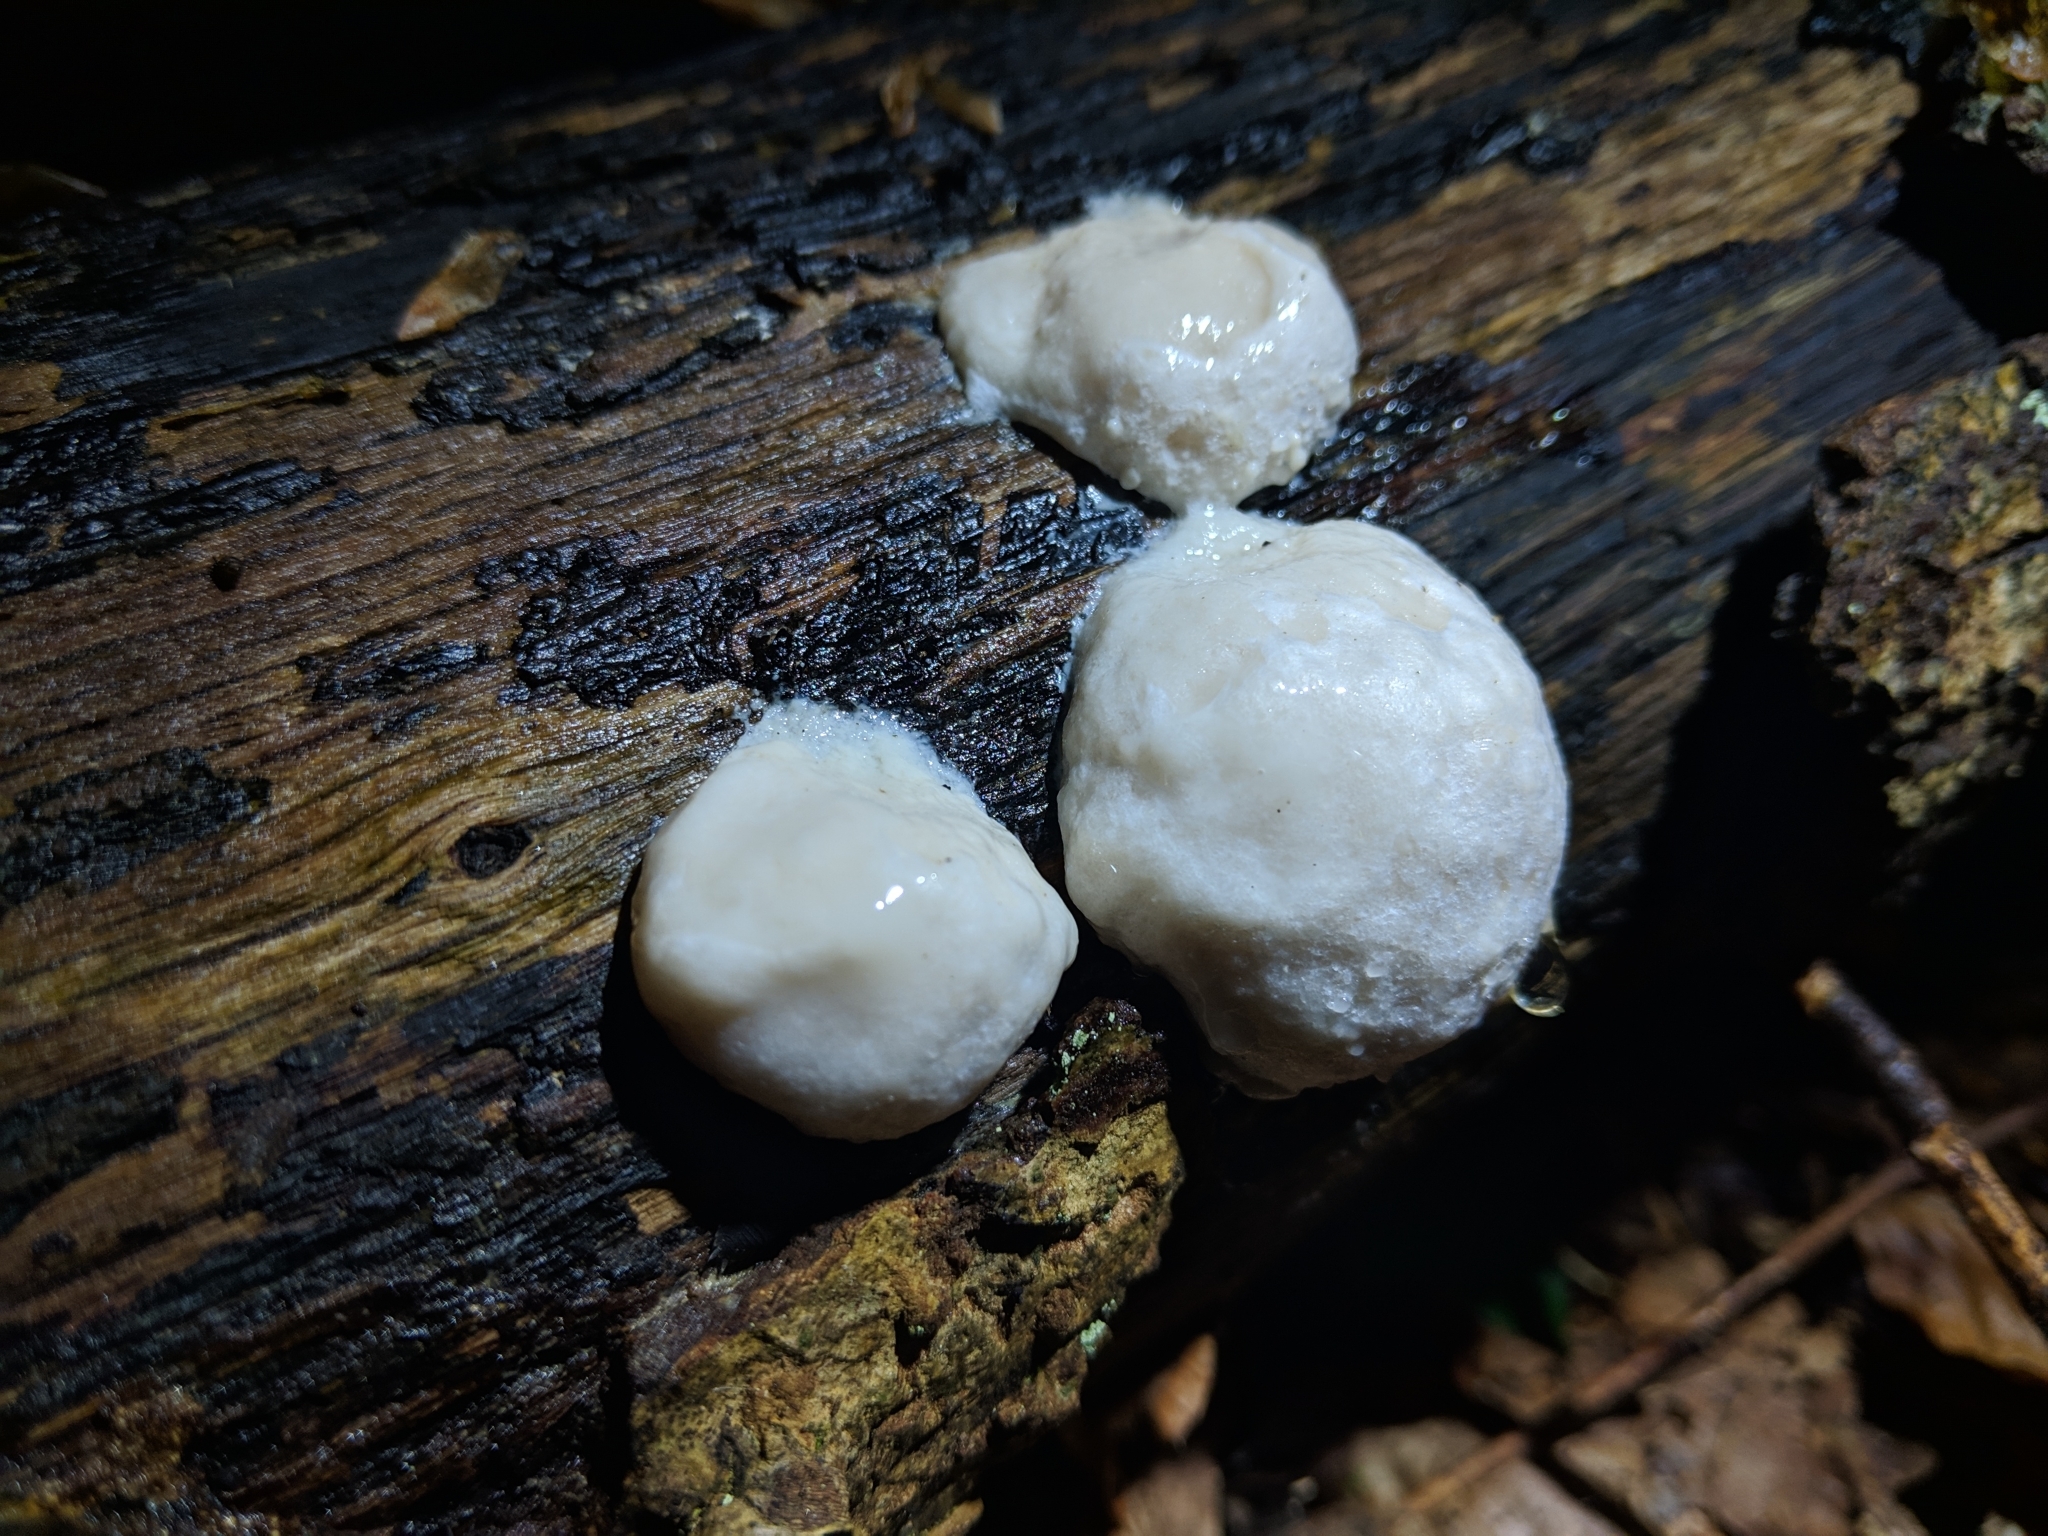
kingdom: Protozoa
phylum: Mycetozoa
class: Myxomycetes
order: Cribrariales
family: Tubiferaceae
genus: Reticularia
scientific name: Reticularia lycoperdon
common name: False puffball
